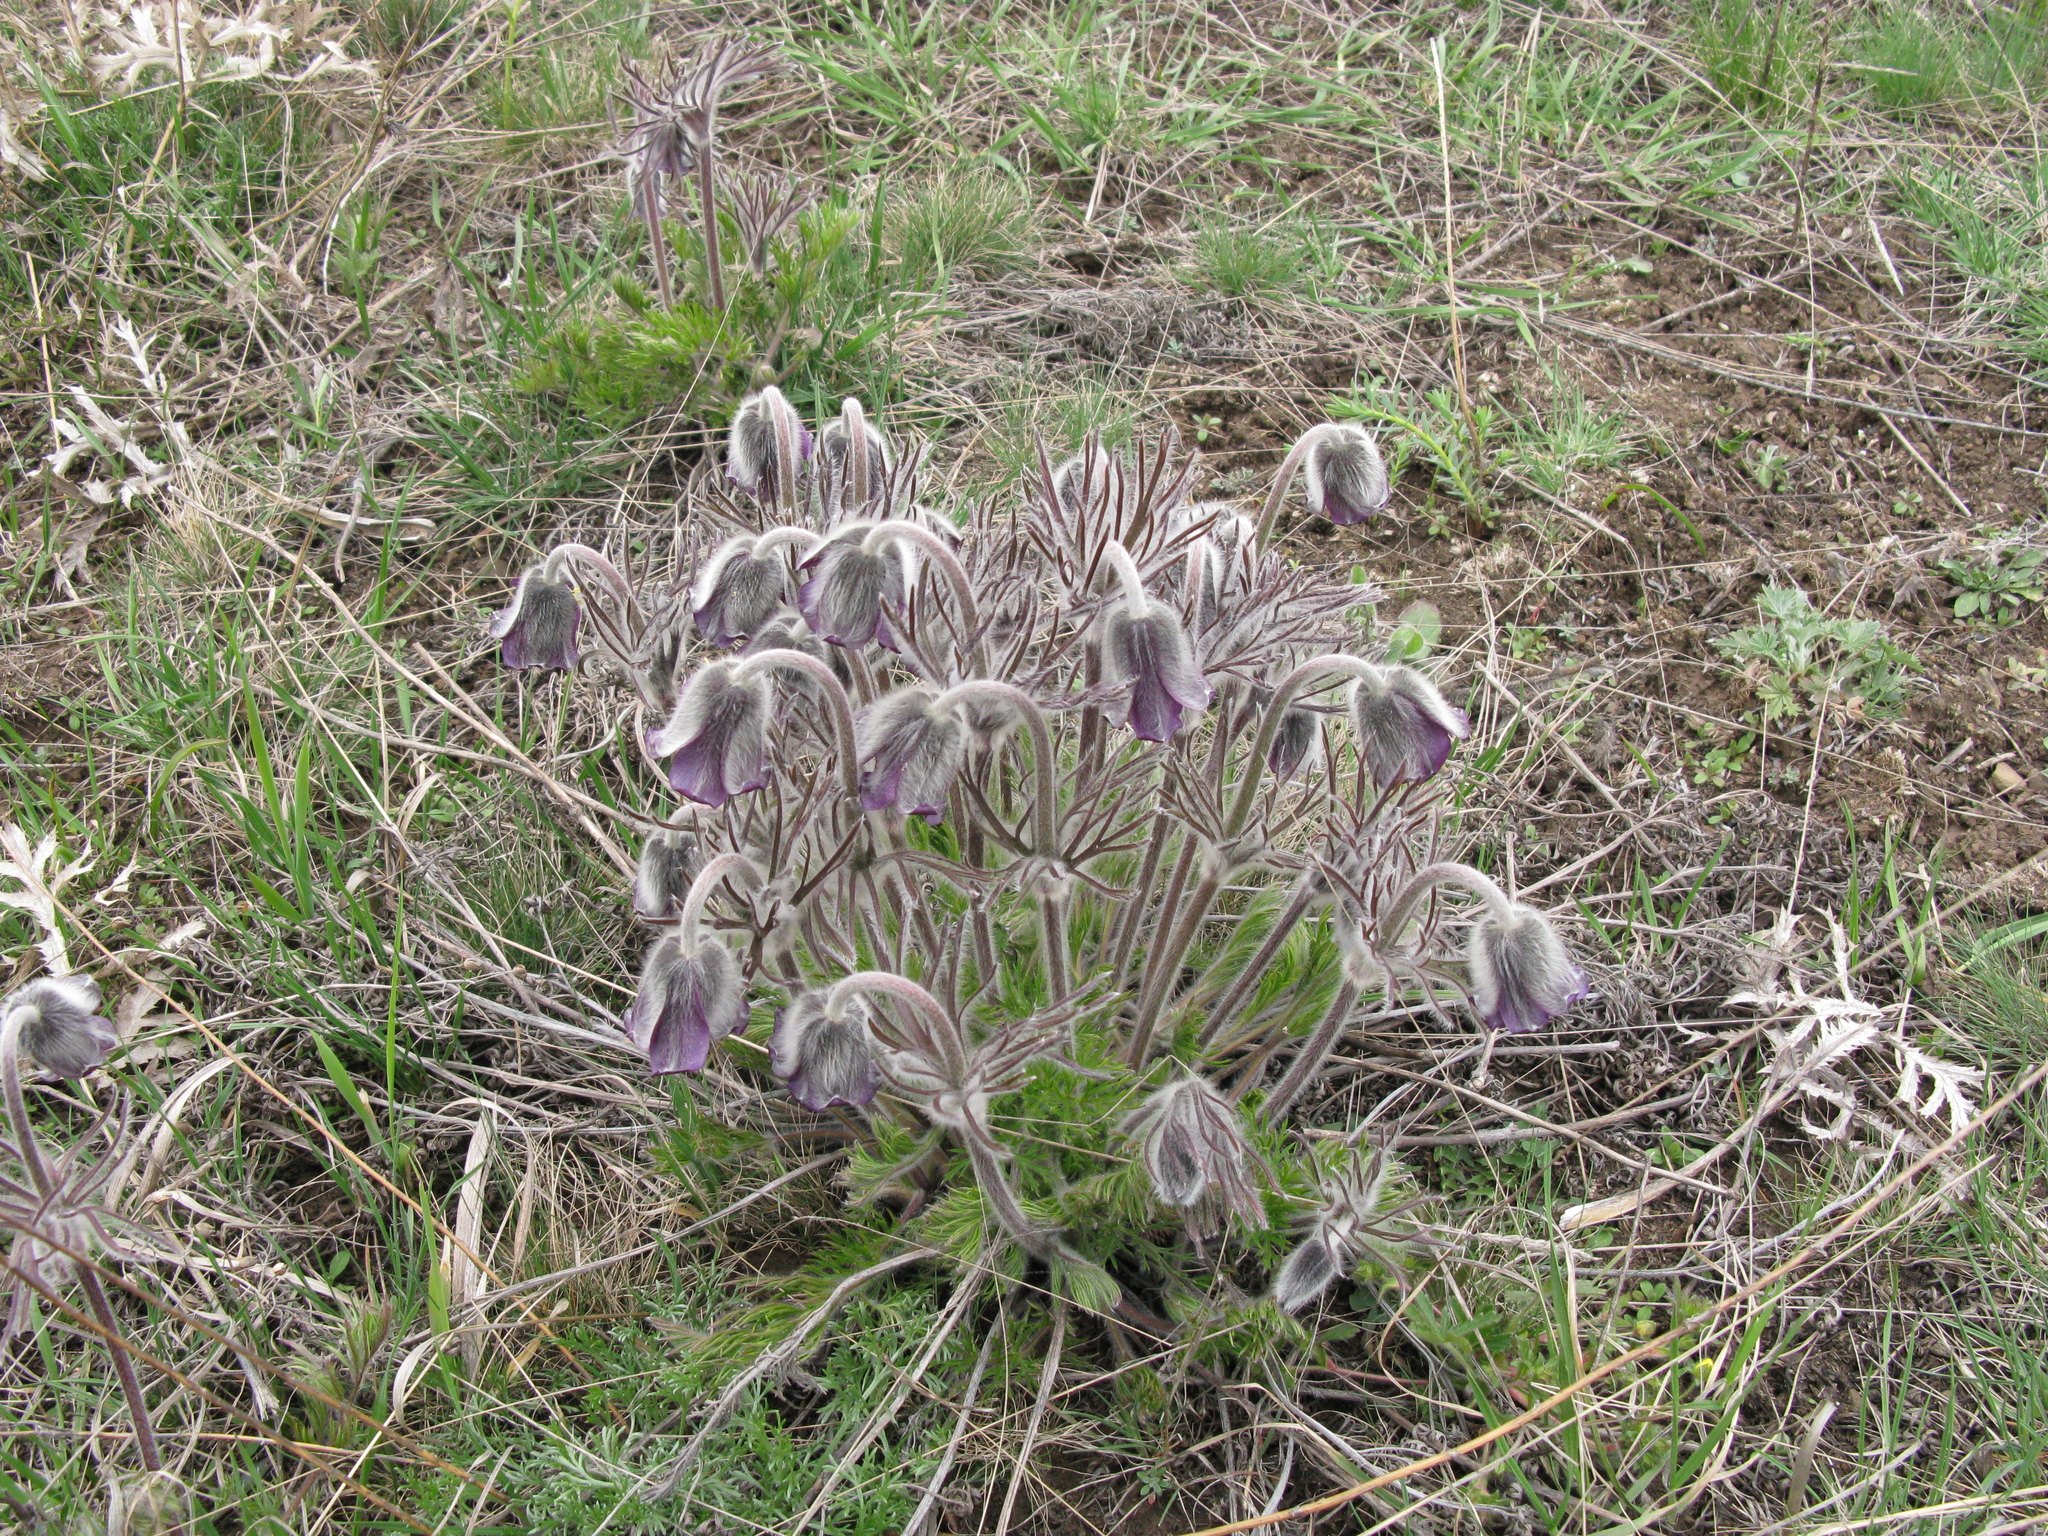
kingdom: Plantae
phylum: Tracheophyta
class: Magnoliopsida
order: Ranunculales
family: Ranunculaceae
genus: Pulsatilla
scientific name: Pulsatilla pratensis
